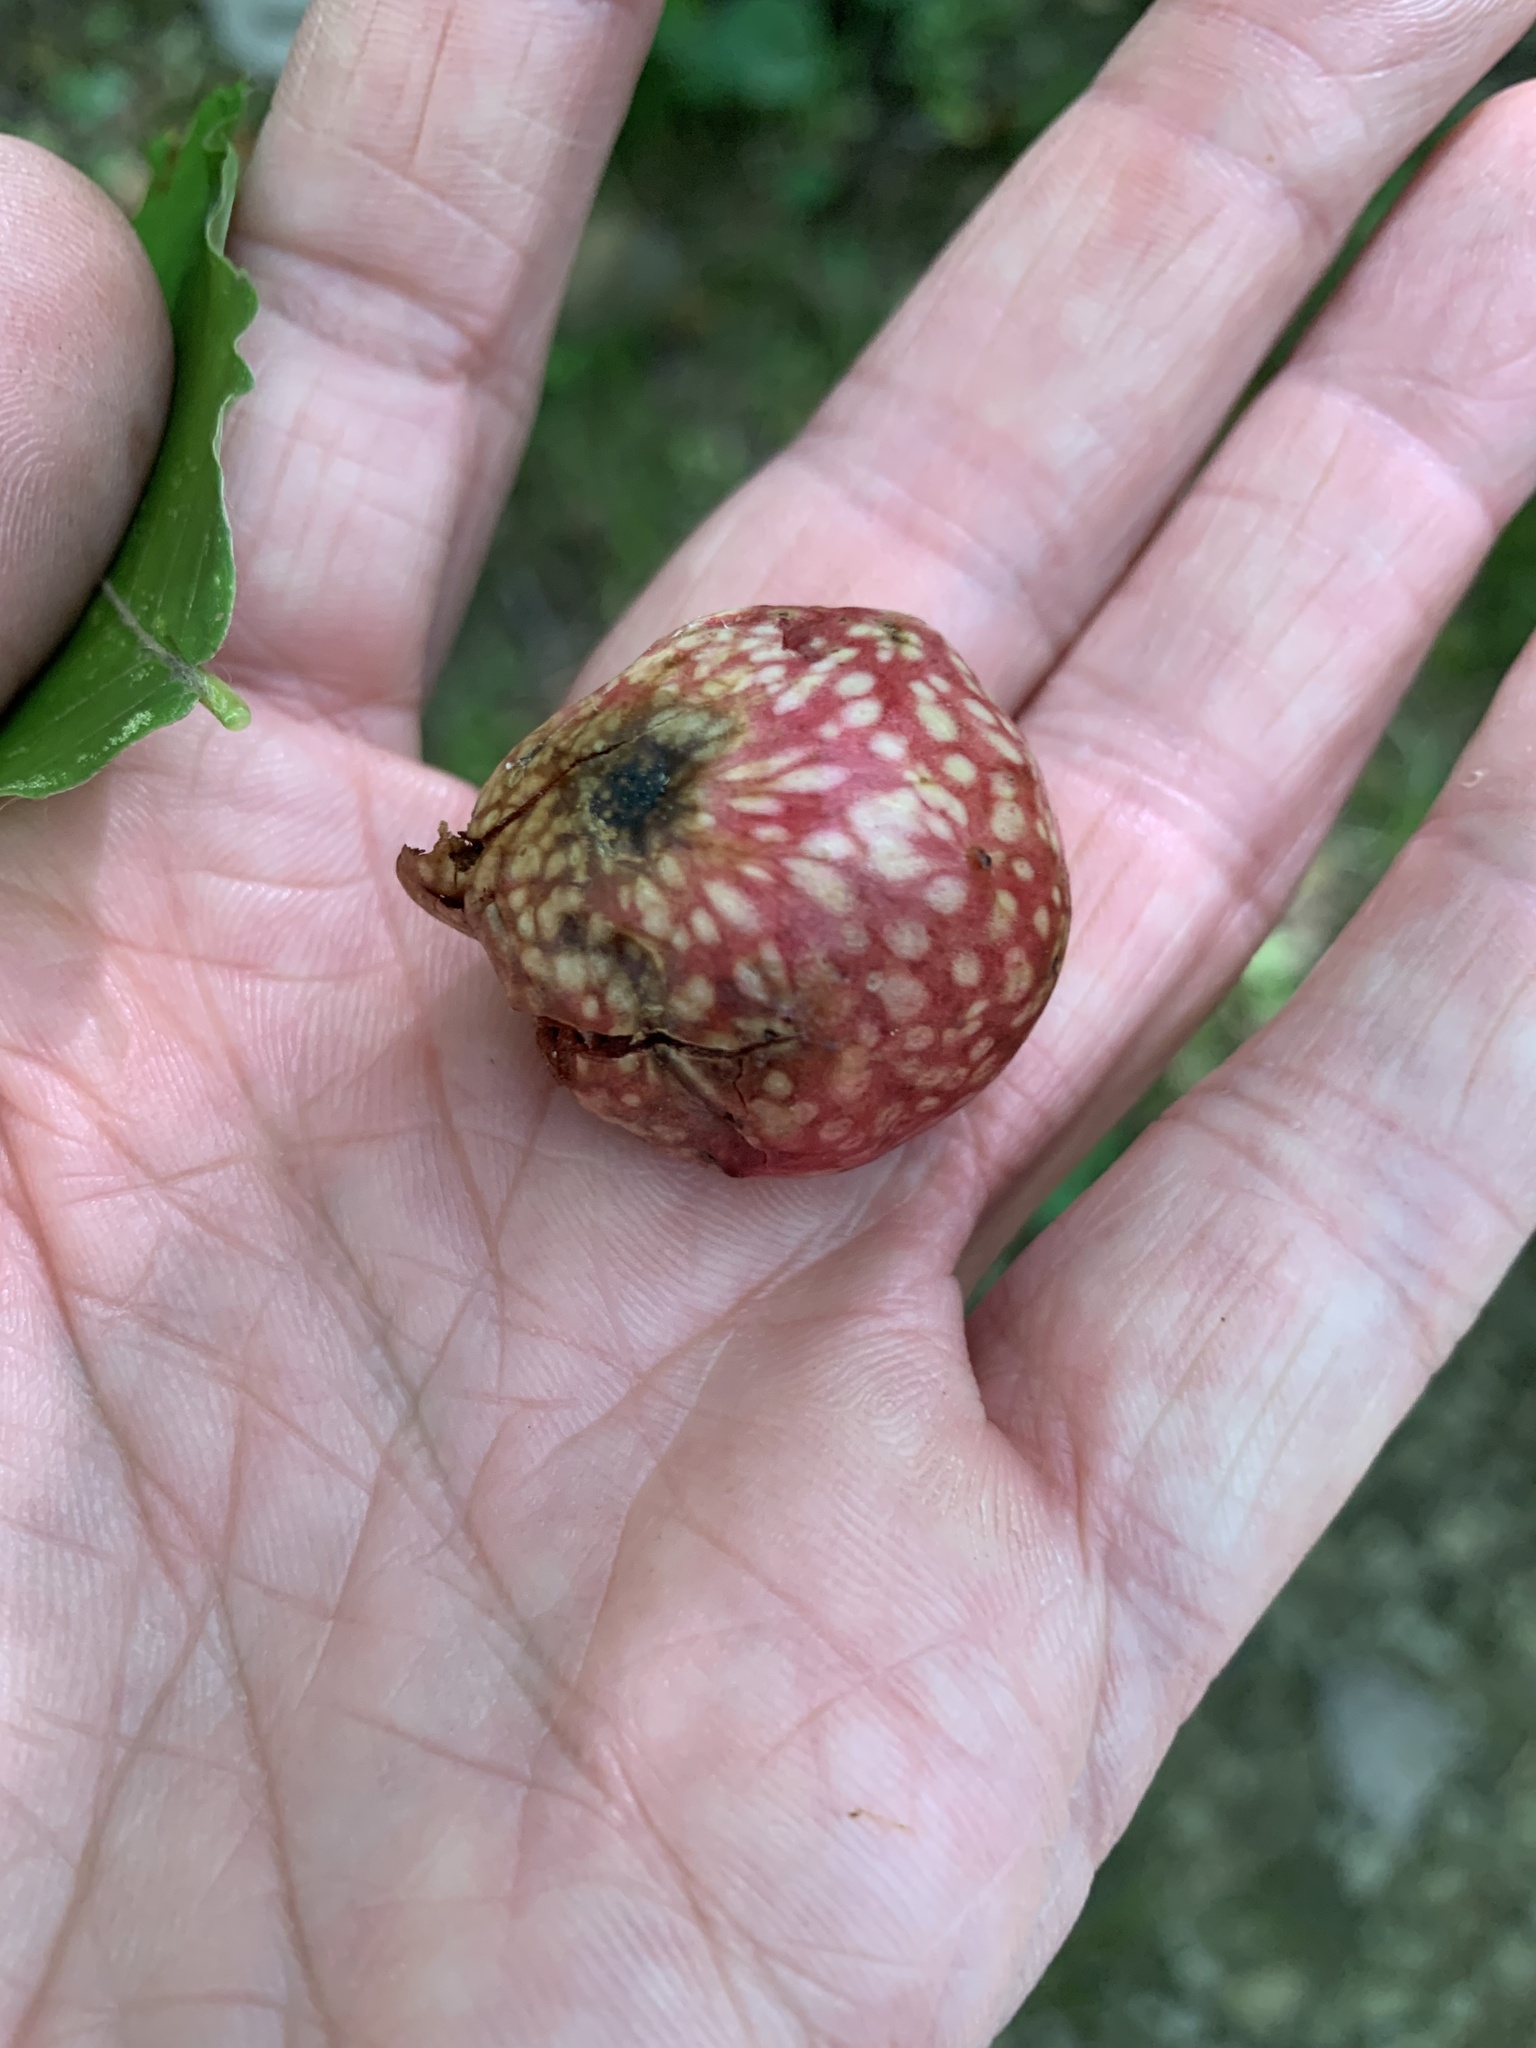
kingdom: Animalia
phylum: Arthropoda
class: Insecta
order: Hymenoptera
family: Cynipidae
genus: Amphibolips
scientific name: Amphibolips
